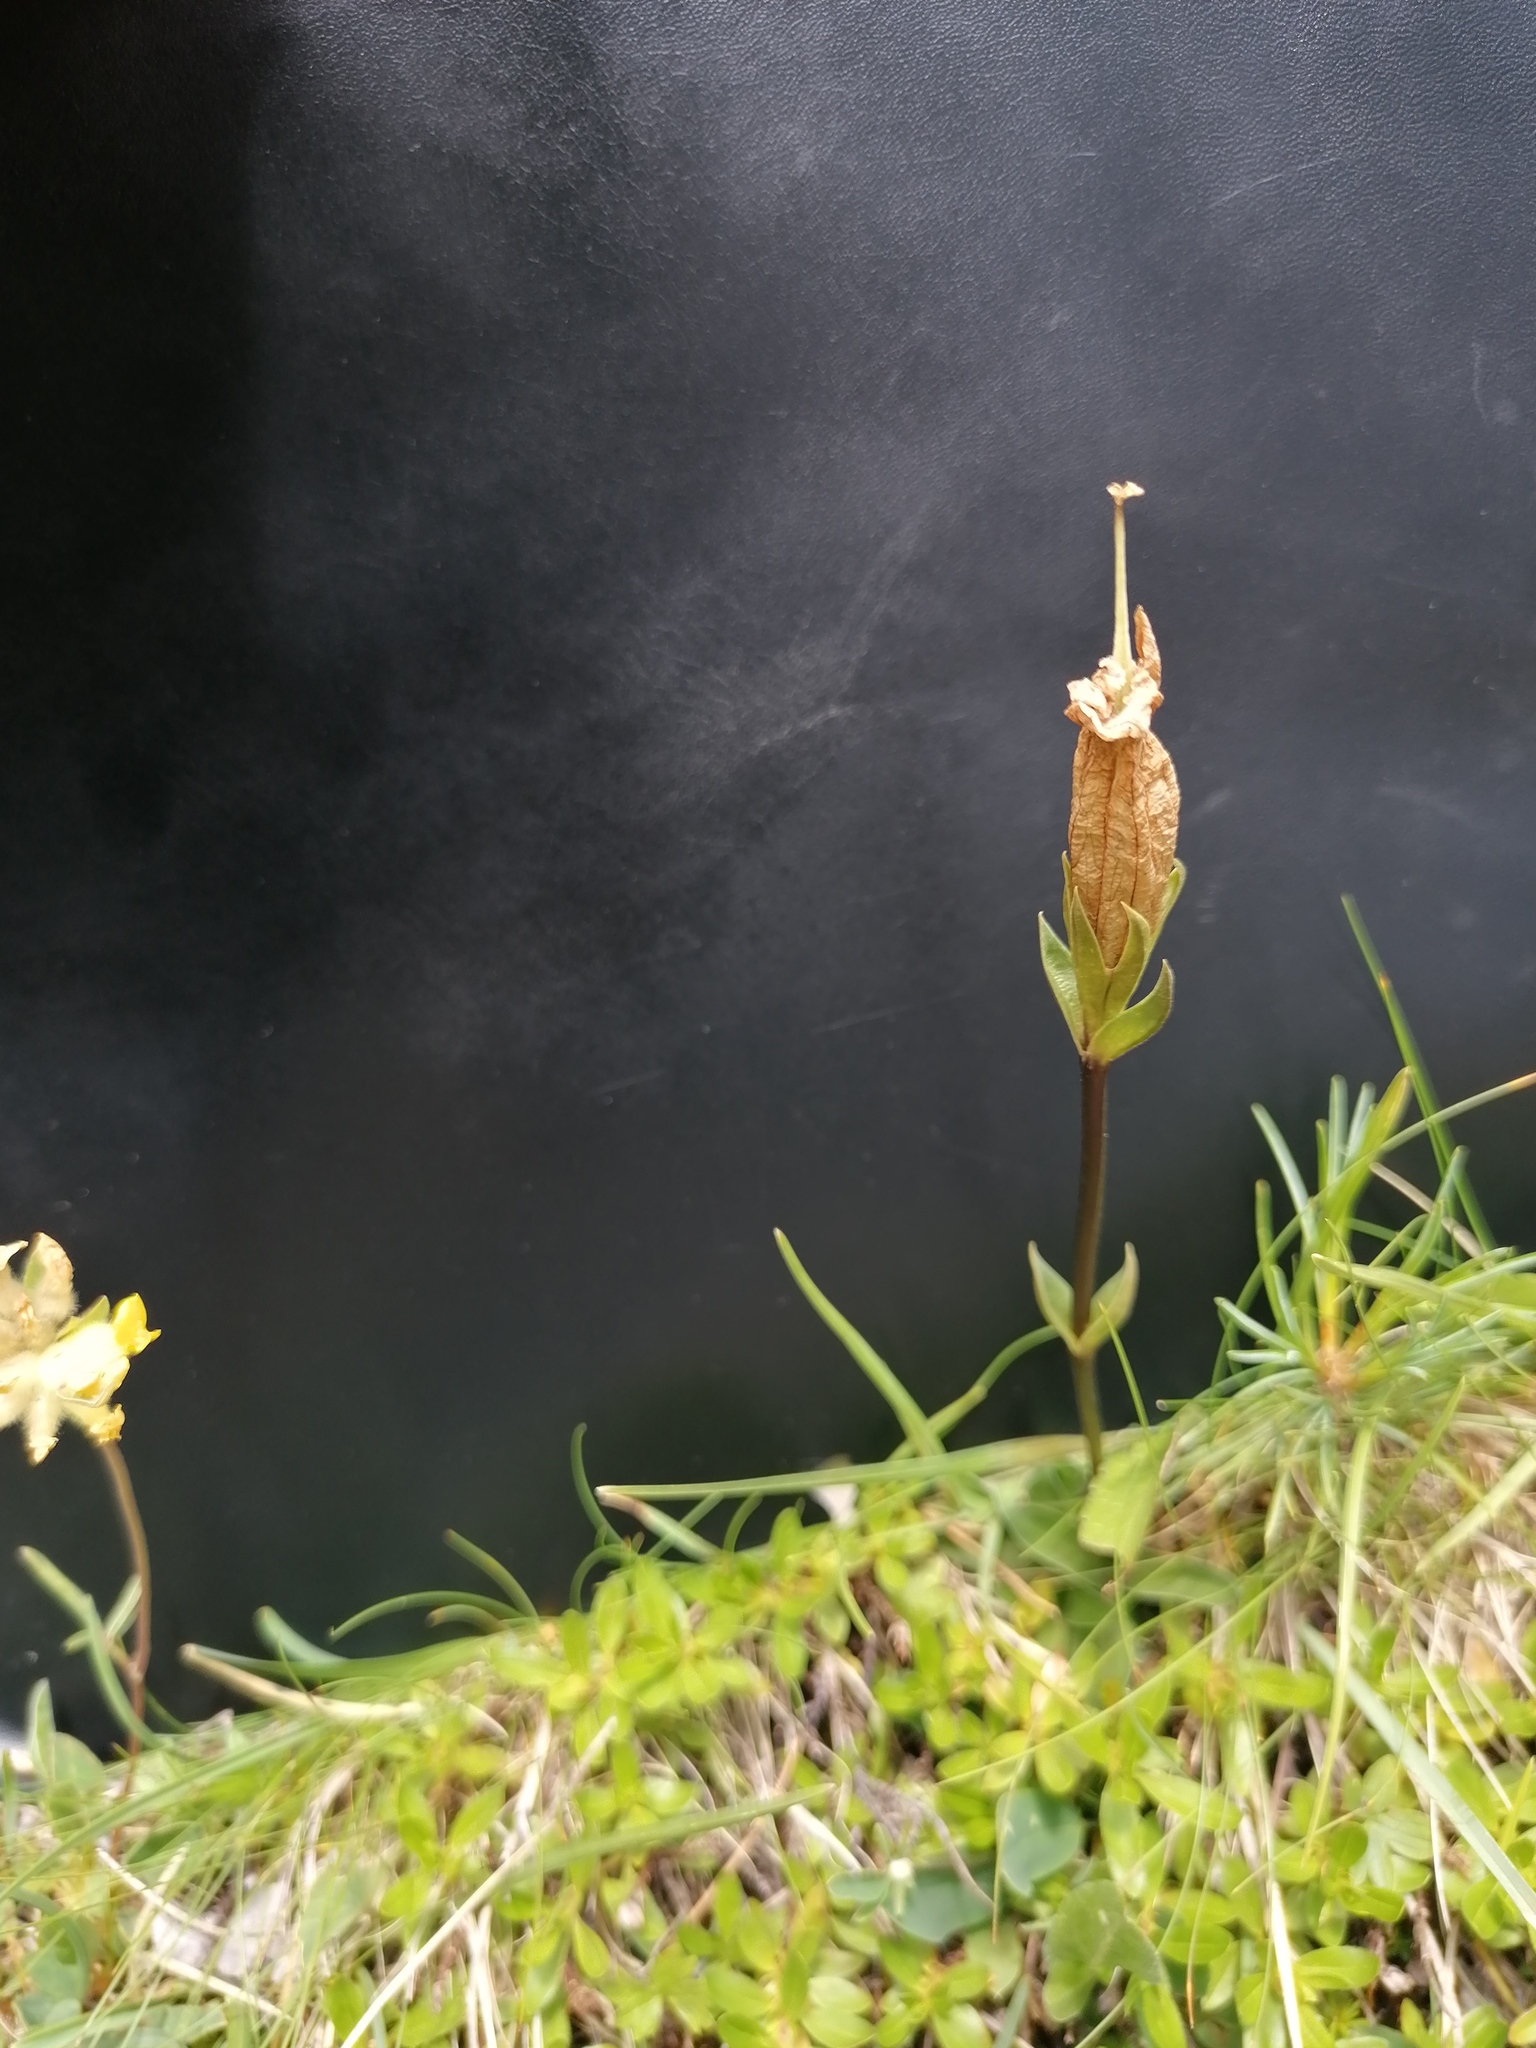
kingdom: Plantae
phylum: Tracheophyta
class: Magnoliopsida
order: Gentianales
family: Gentianaceae
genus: Gentiana
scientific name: Gentiana clusii
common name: Trumpet gentian
